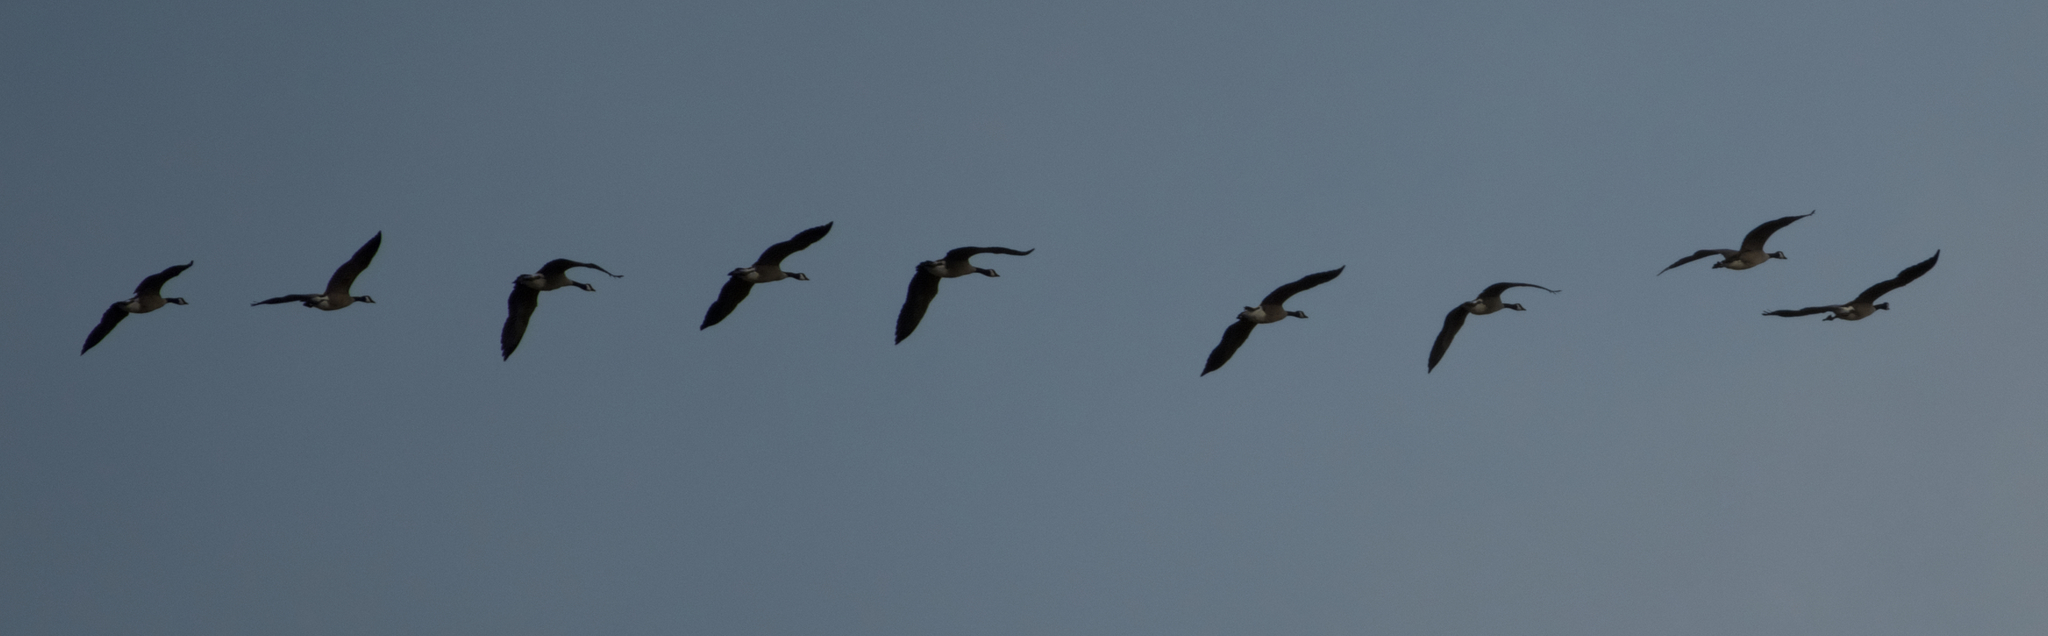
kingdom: Animalia
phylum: Chordata
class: Aves
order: Anseriformes
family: Anatidae
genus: Branta
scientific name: Branta canadensis
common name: Canada goose
